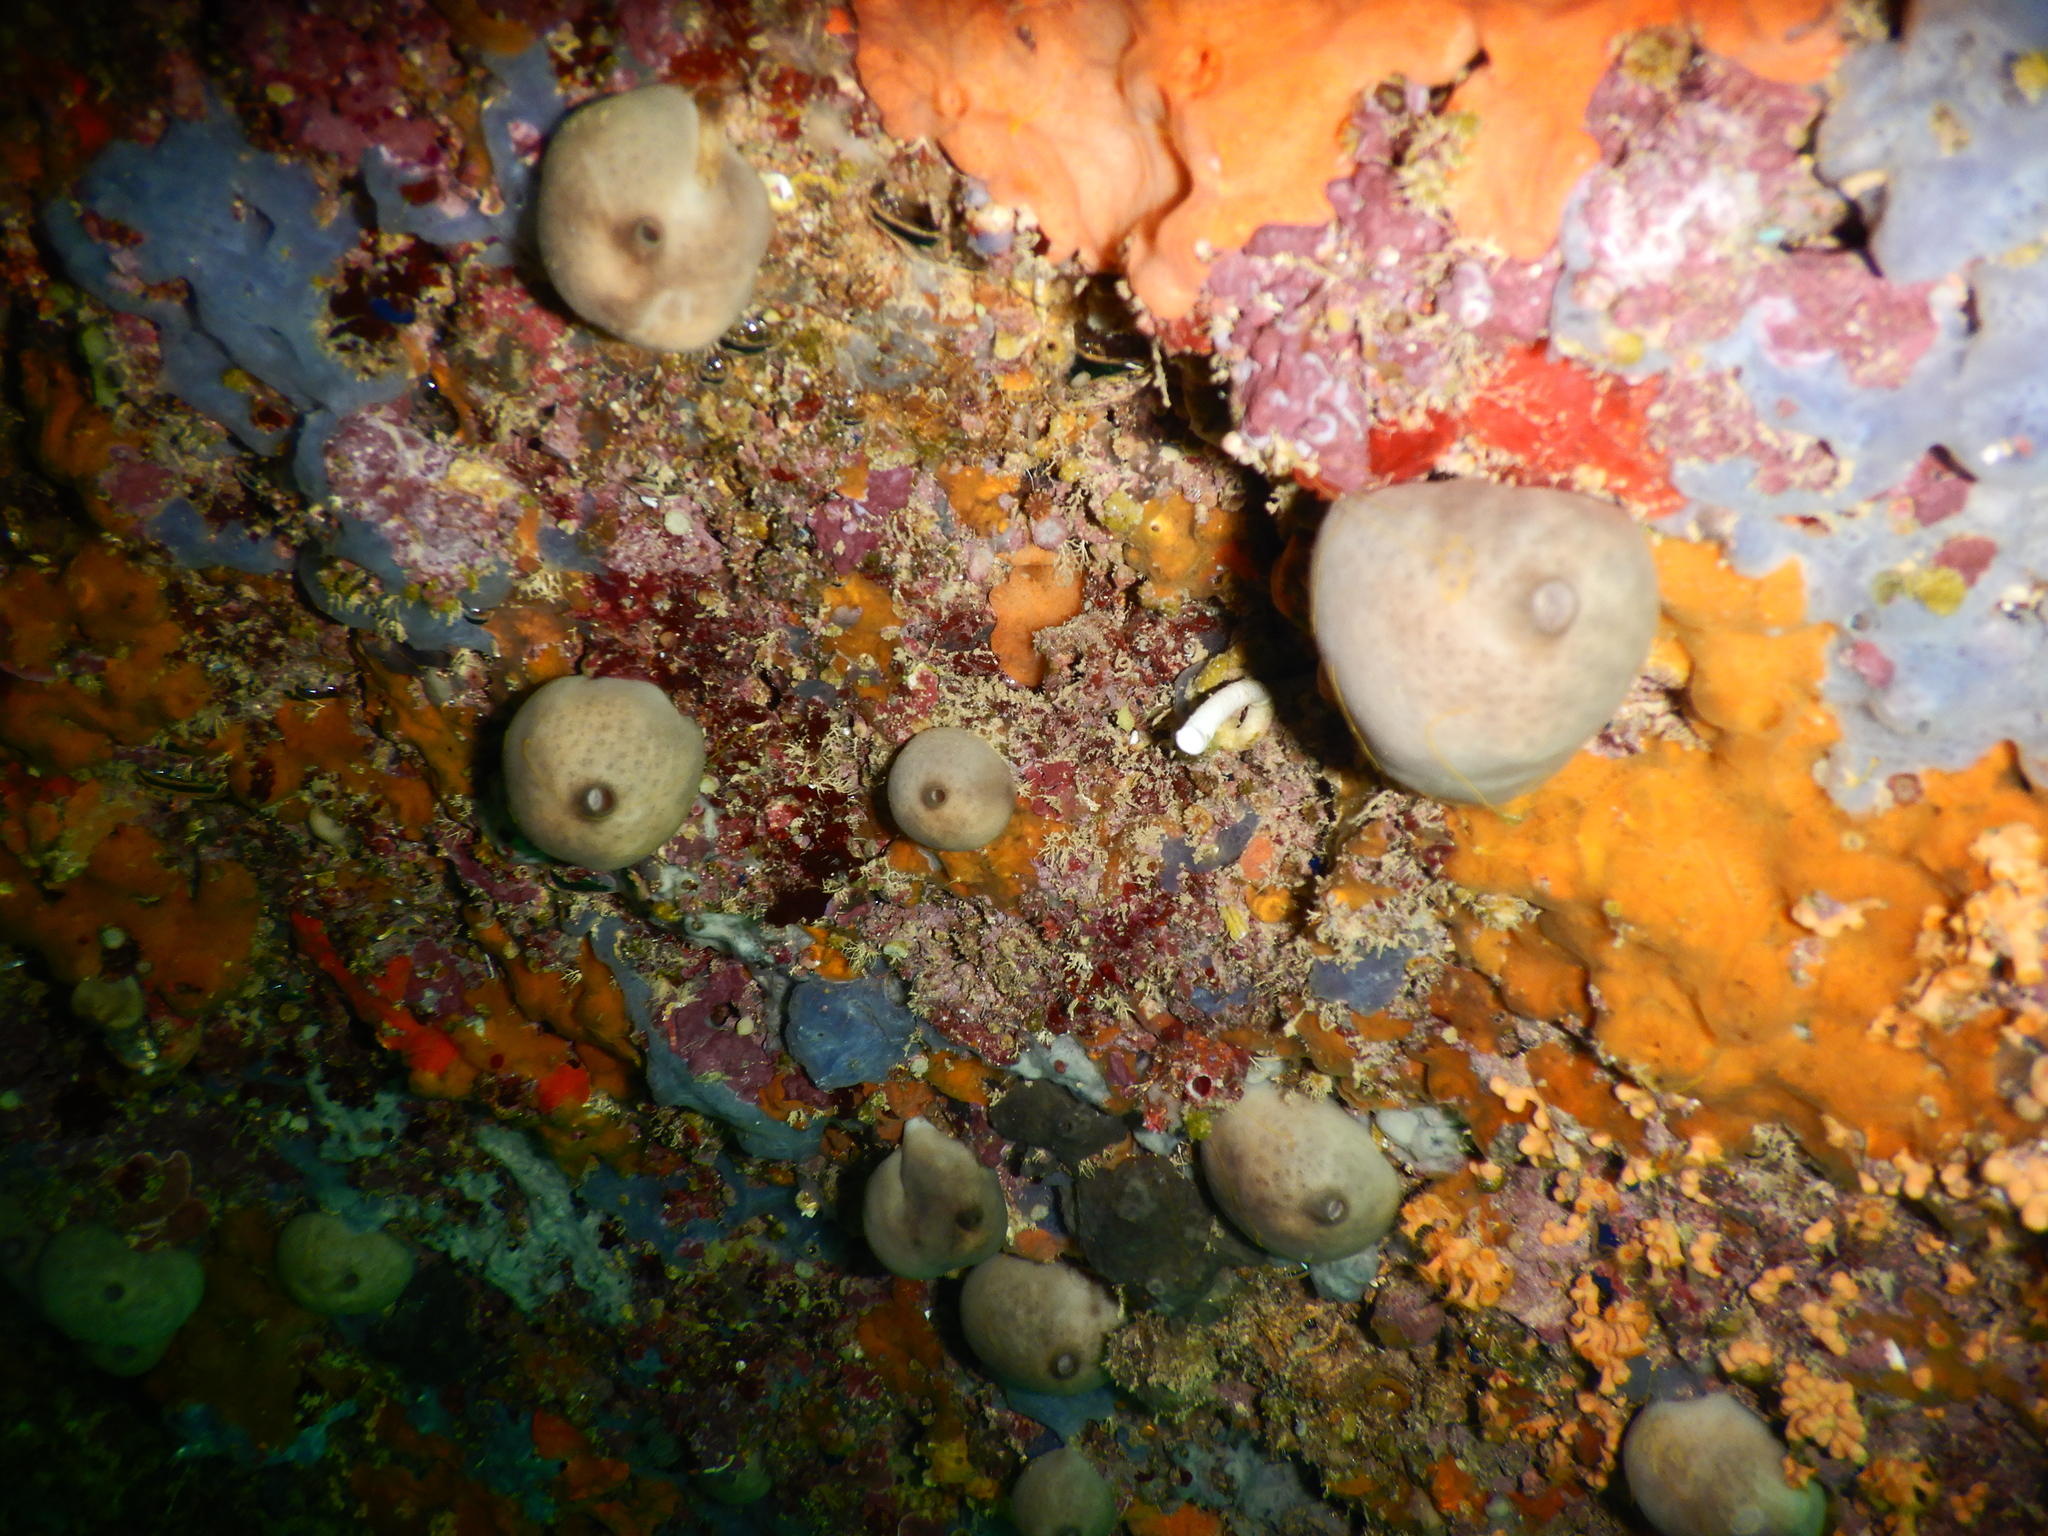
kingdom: Animalia
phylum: Porifera
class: Demospongiae
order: Chondrosiida
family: Chondrosiidae
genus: Chondrosia
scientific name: Chondrosia reniformis
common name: Chicken liver sponge
